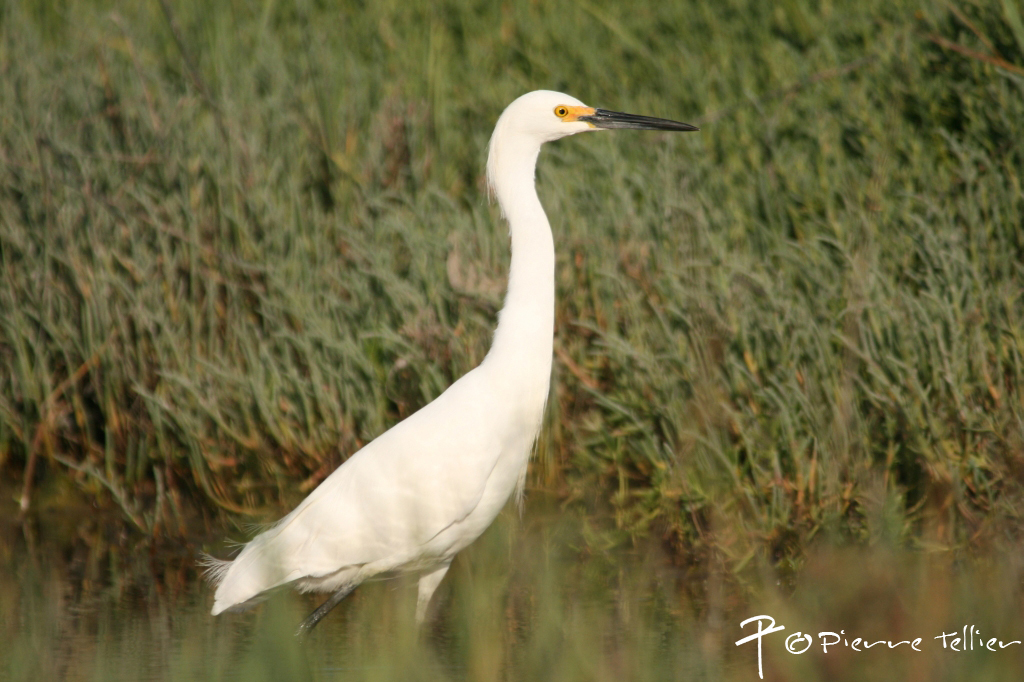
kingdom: Animalia
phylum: Chordata
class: Aves
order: Pelecaniformes
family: Ardeidae
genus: Egretta
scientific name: Egretta thula
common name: Snowy egret
